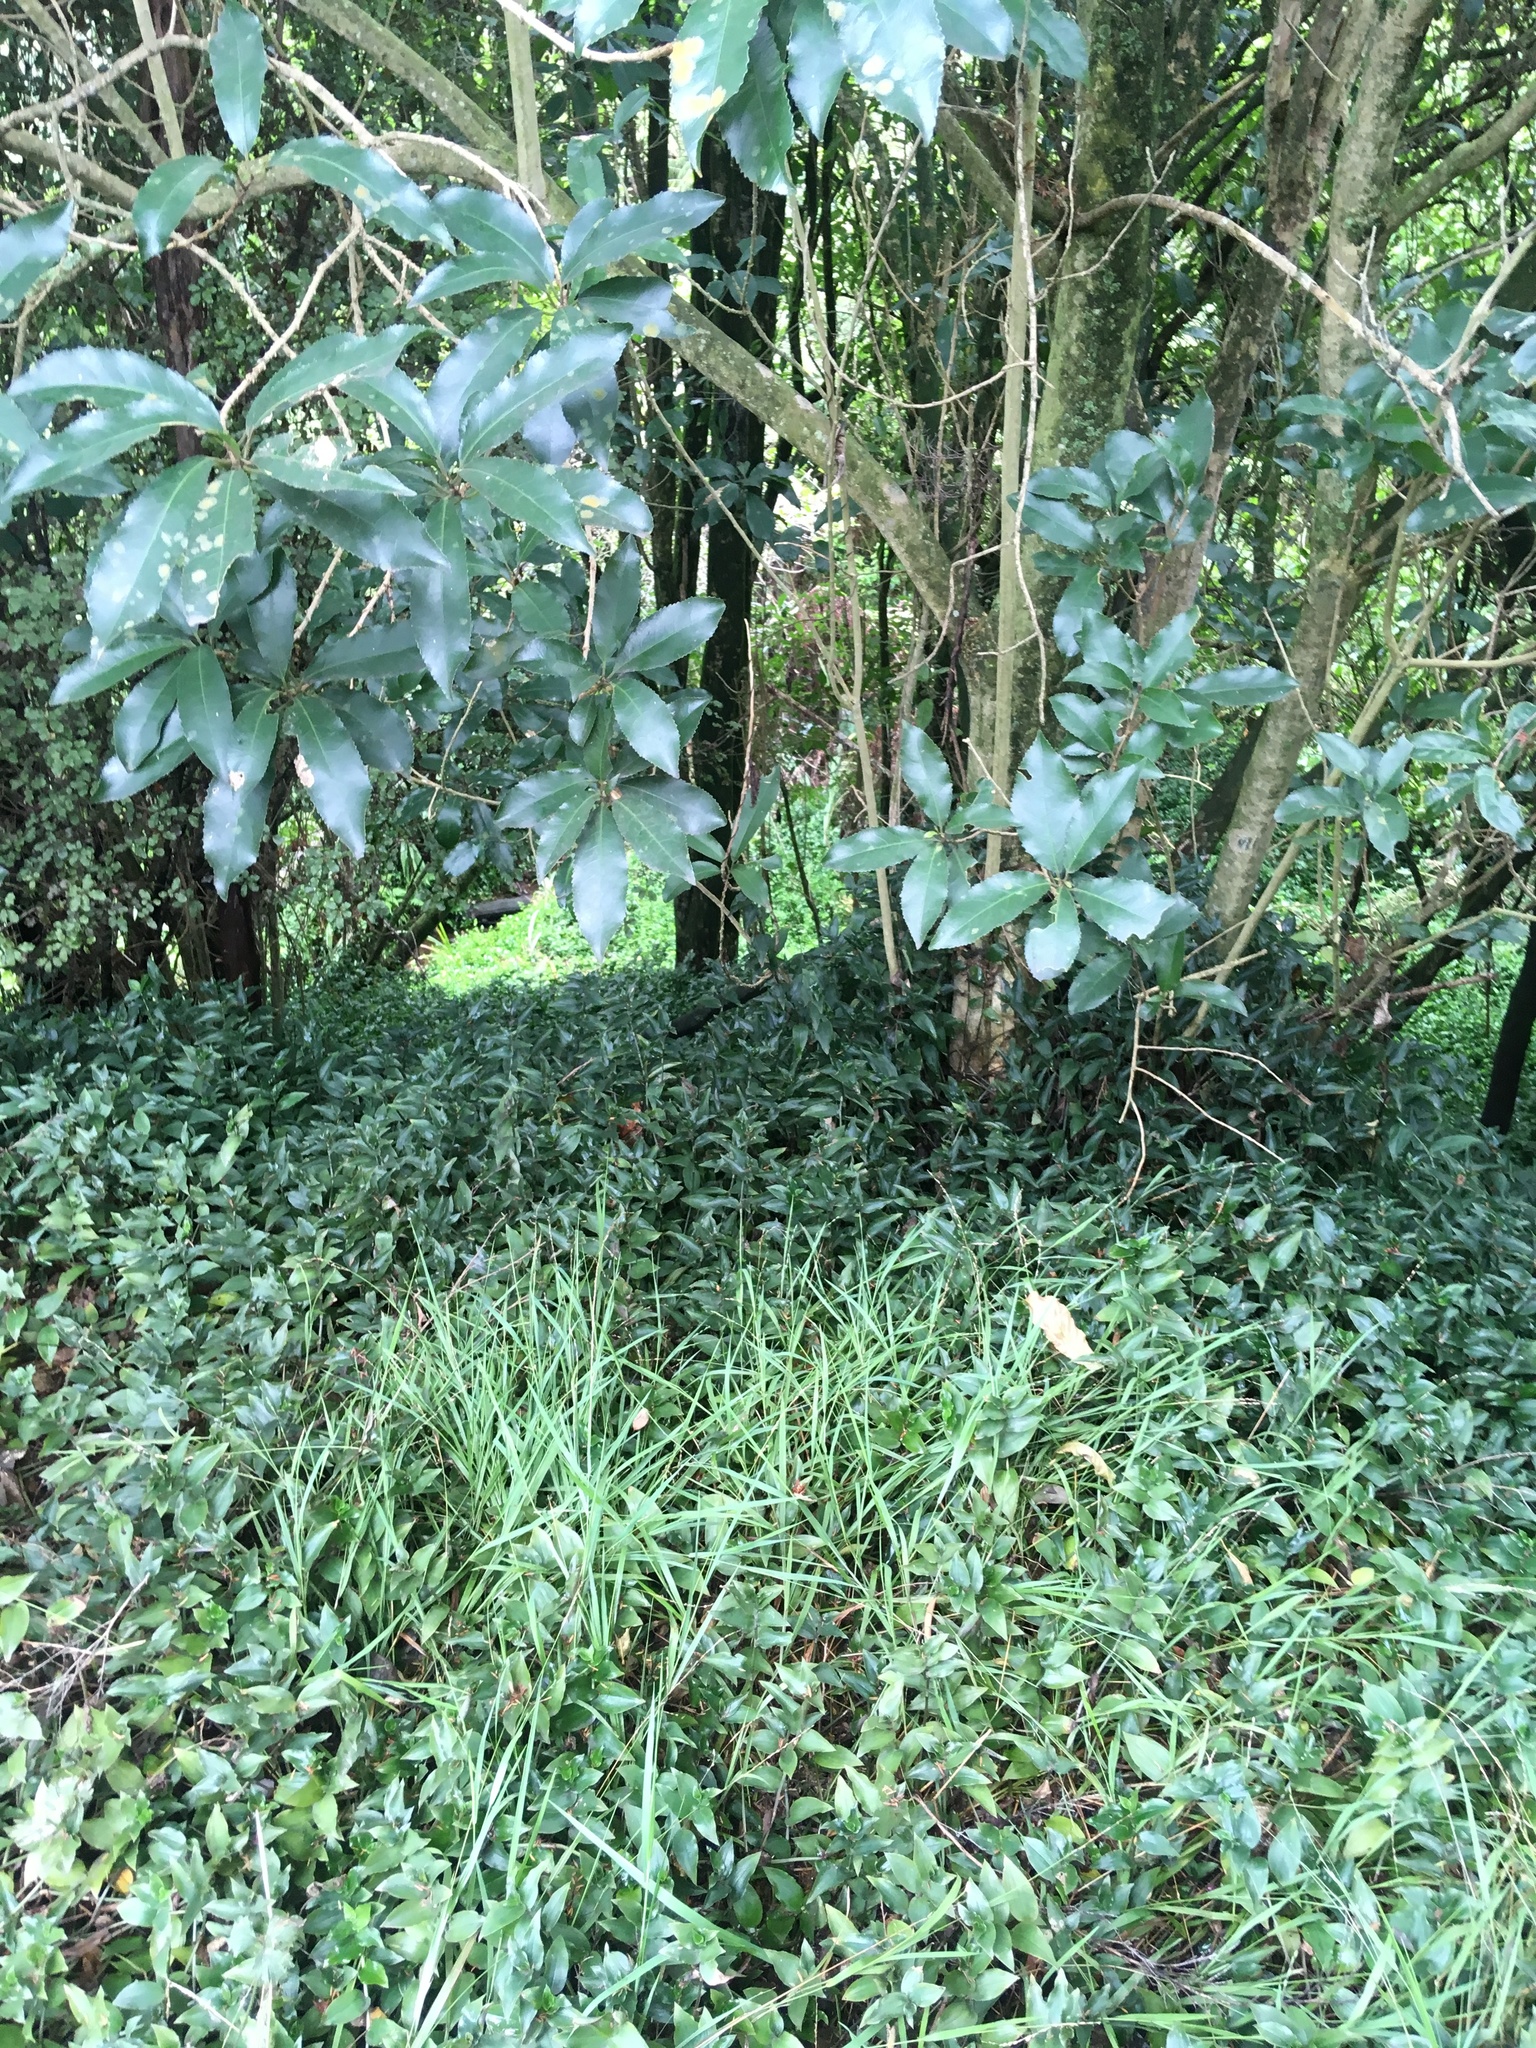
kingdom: Plantae
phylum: Tracheophyta
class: Magnoliopsida
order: Malpighiales
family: Violaceae
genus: Melicytus
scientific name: Melicytus ramiflorus
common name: Mahoe
